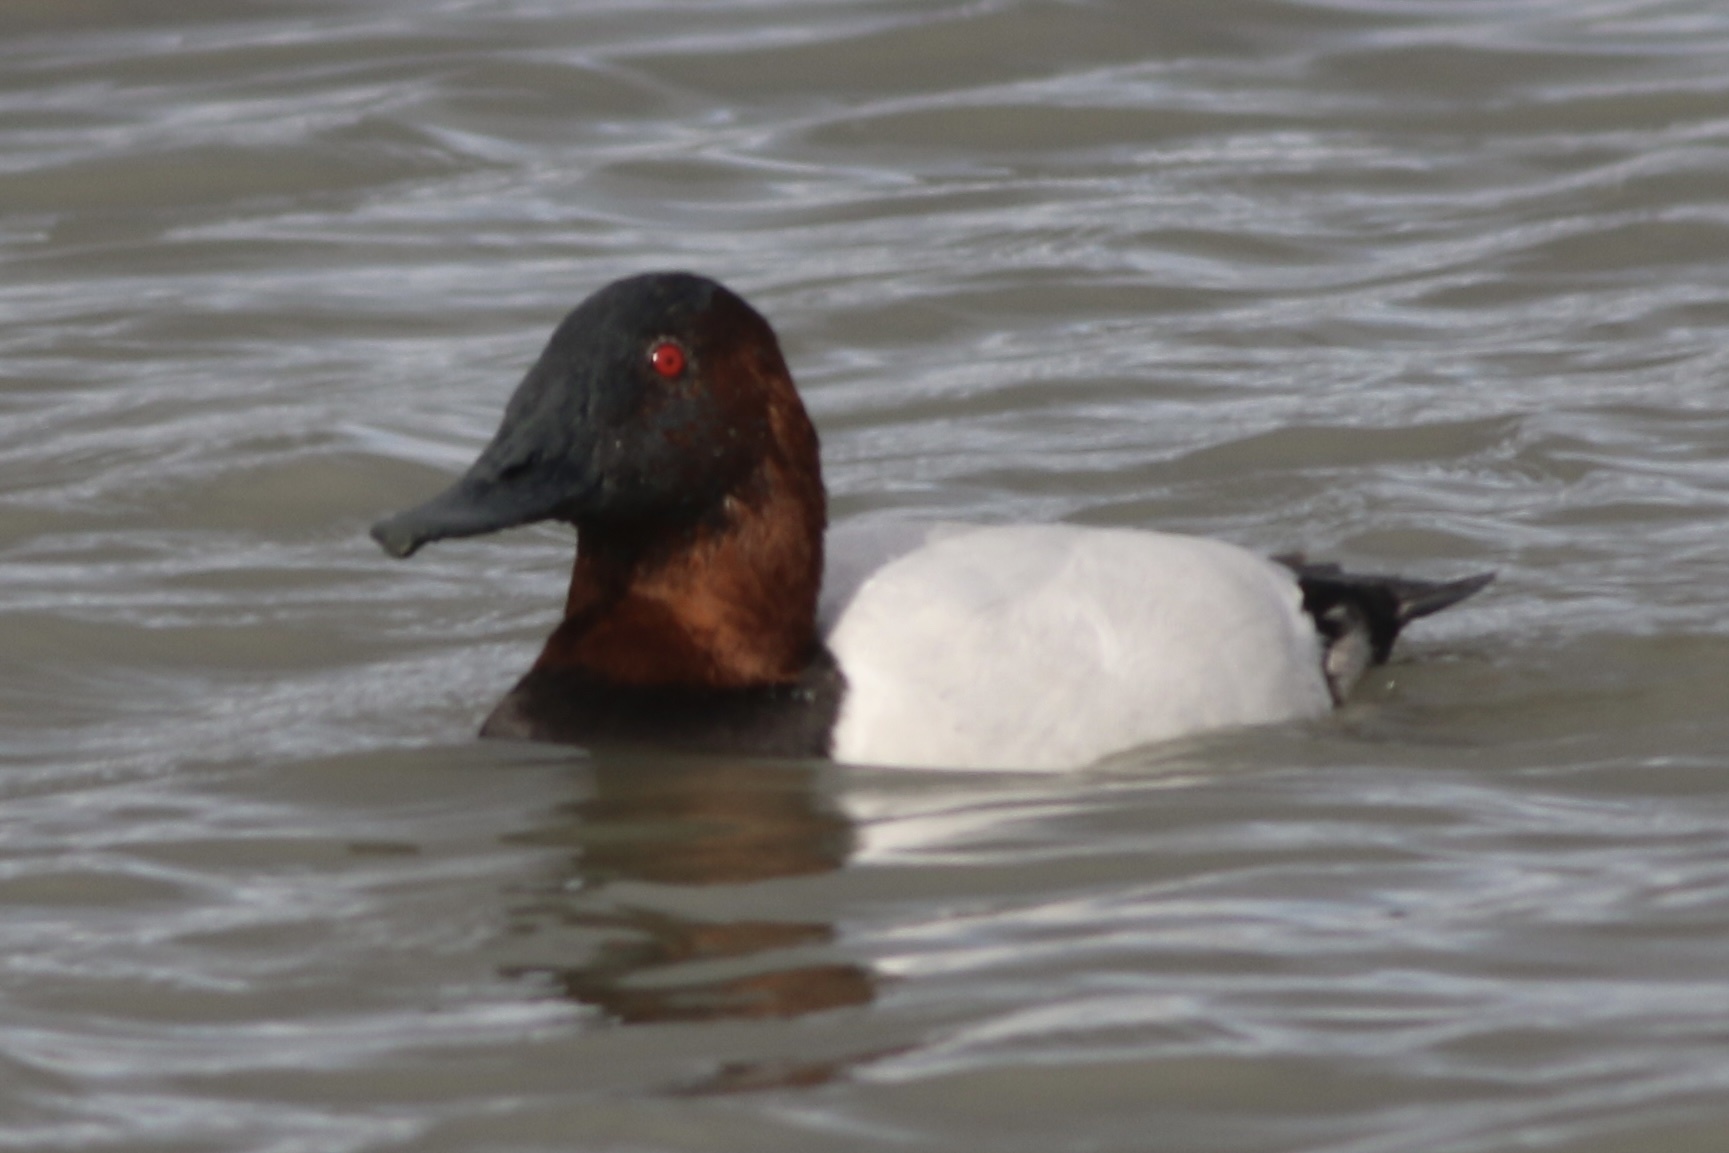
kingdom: Animalia
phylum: Chordata
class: Aves
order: Anseriformes
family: Anatidae
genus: Aythya
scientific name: Aythya valisineria
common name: Canvasback
